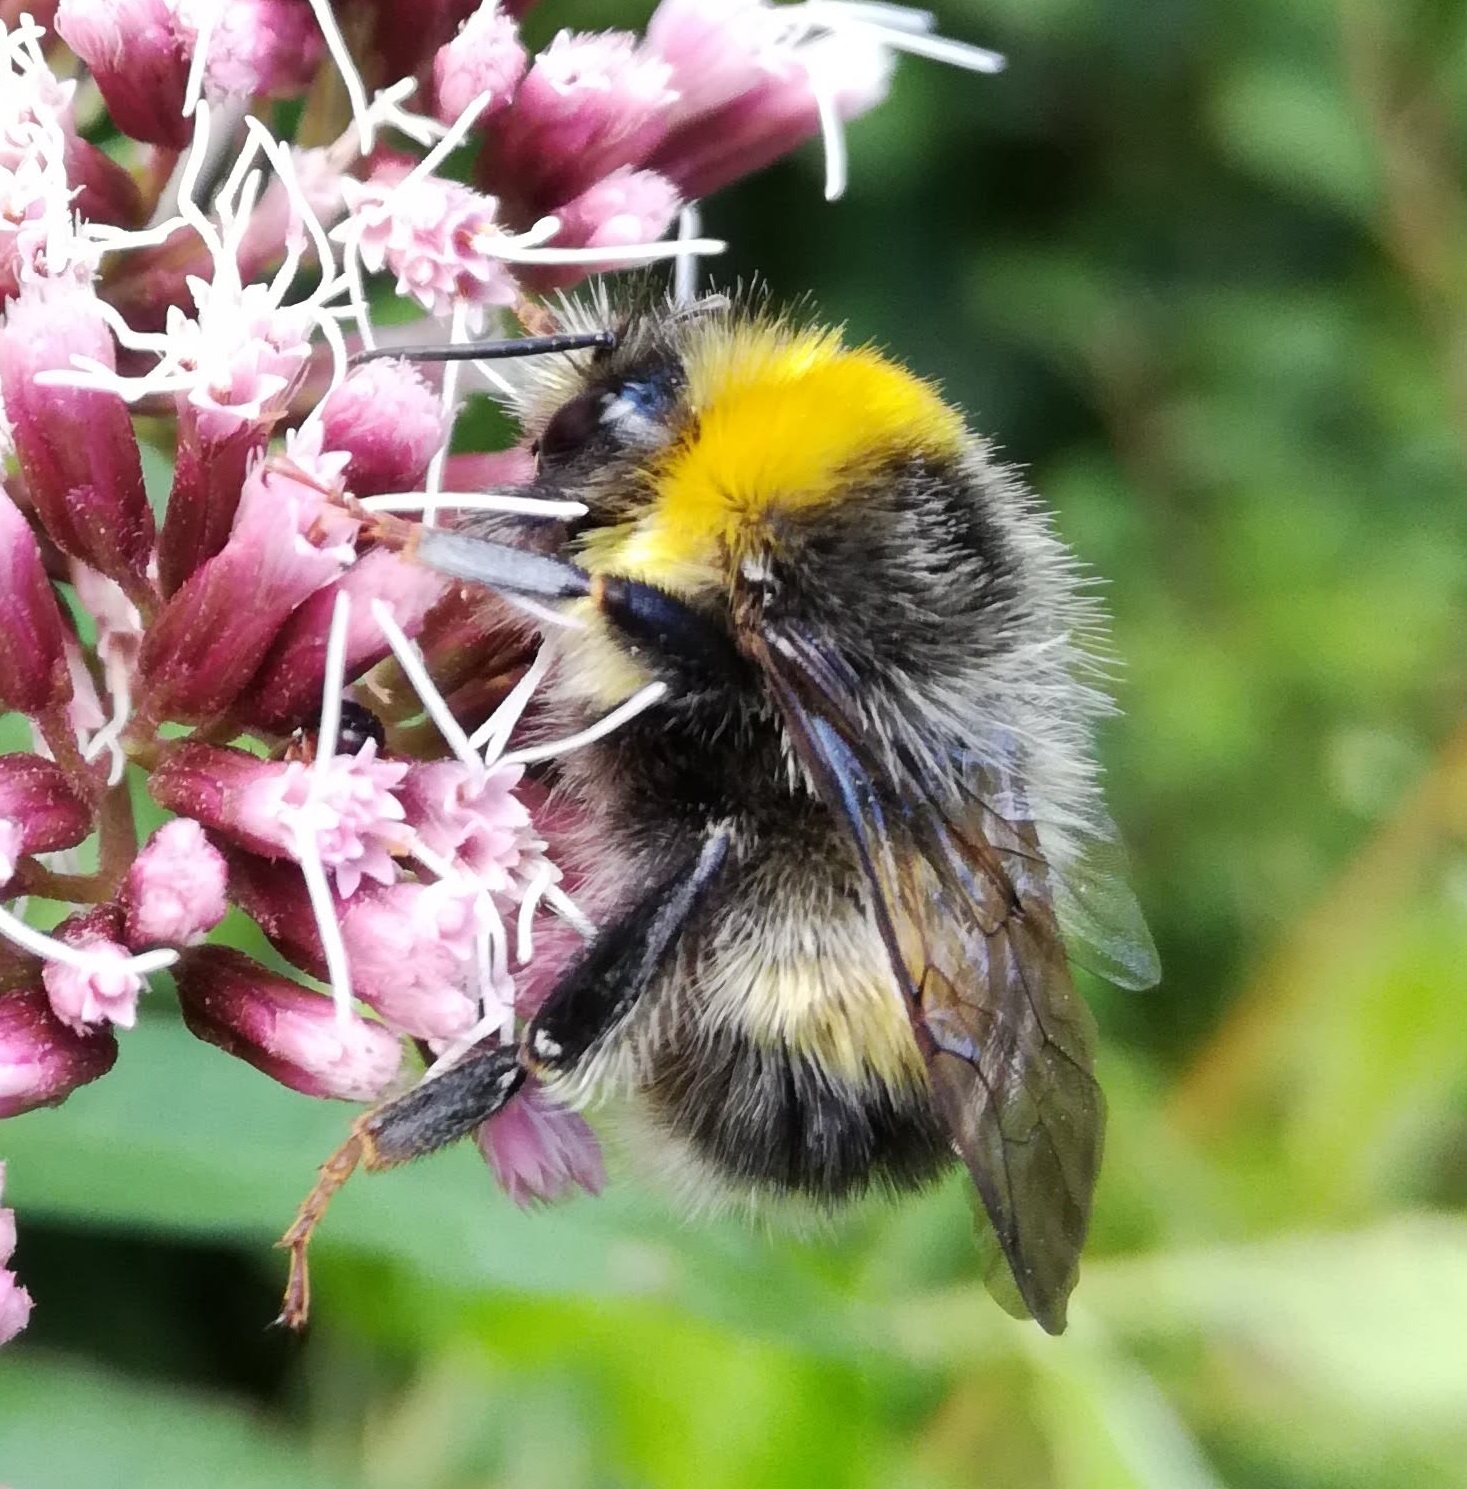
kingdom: Animalia
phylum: Arthropoda
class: Insecta
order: Hymenoptera
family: Apidae
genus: Bombus
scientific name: Bombus lucorum
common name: White-tailed bumblebee
